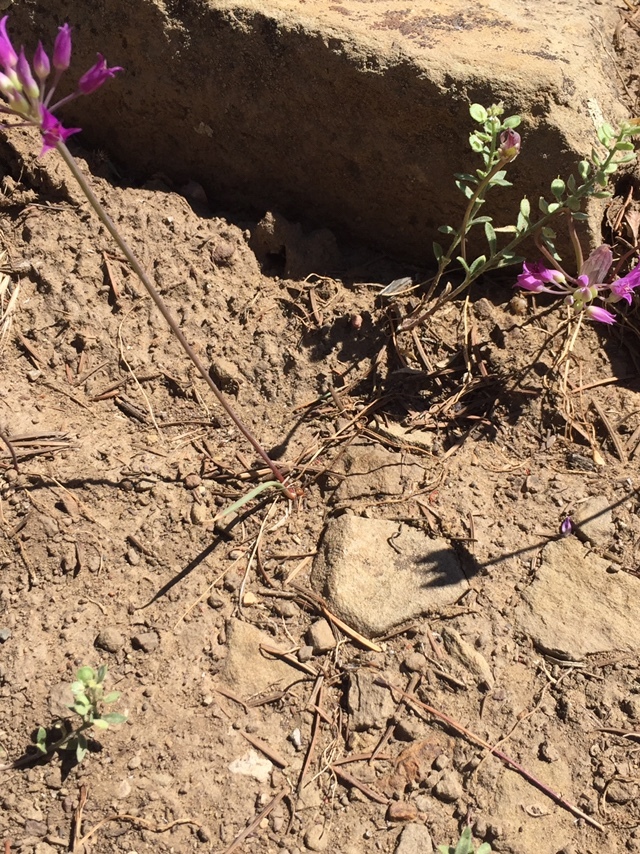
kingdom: Plantae
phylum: Tracheophyta
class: Liliopsida
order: Asparagales
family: Amaryllidaceae
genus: Allium
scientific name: Allium acuminatum
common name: Hooker's onion
